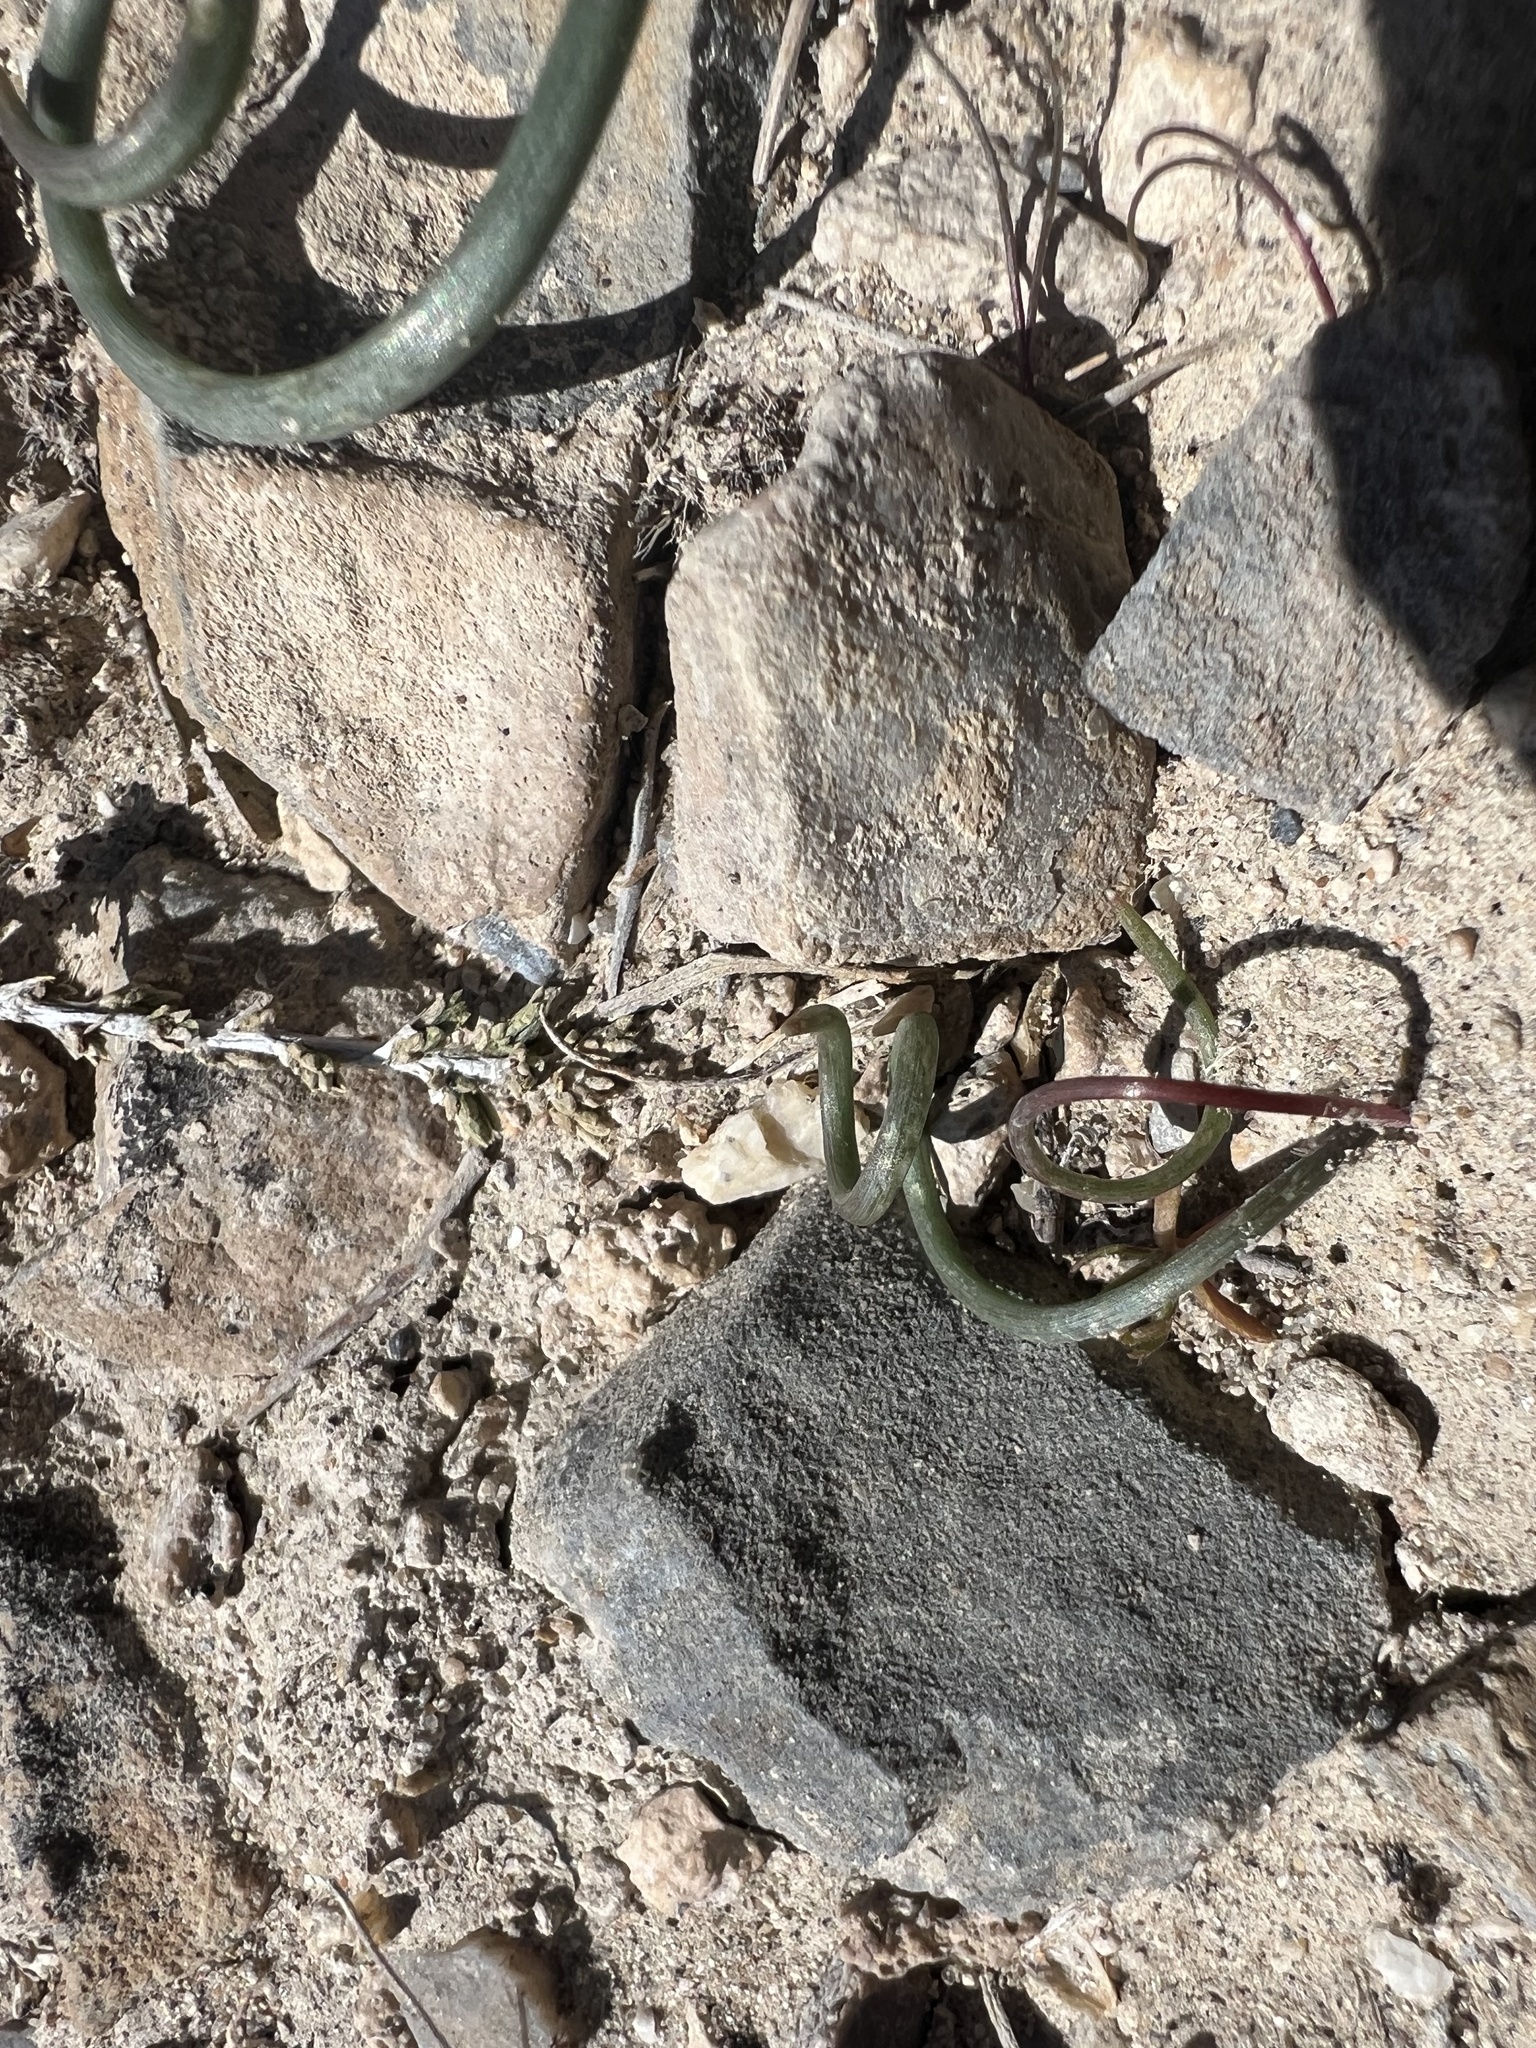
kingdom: Plantae
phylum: Tracheophyta
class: Liliopsida
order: Asparagales
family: Amaryllidaceae
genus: Allium
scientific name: Allium nevadense
